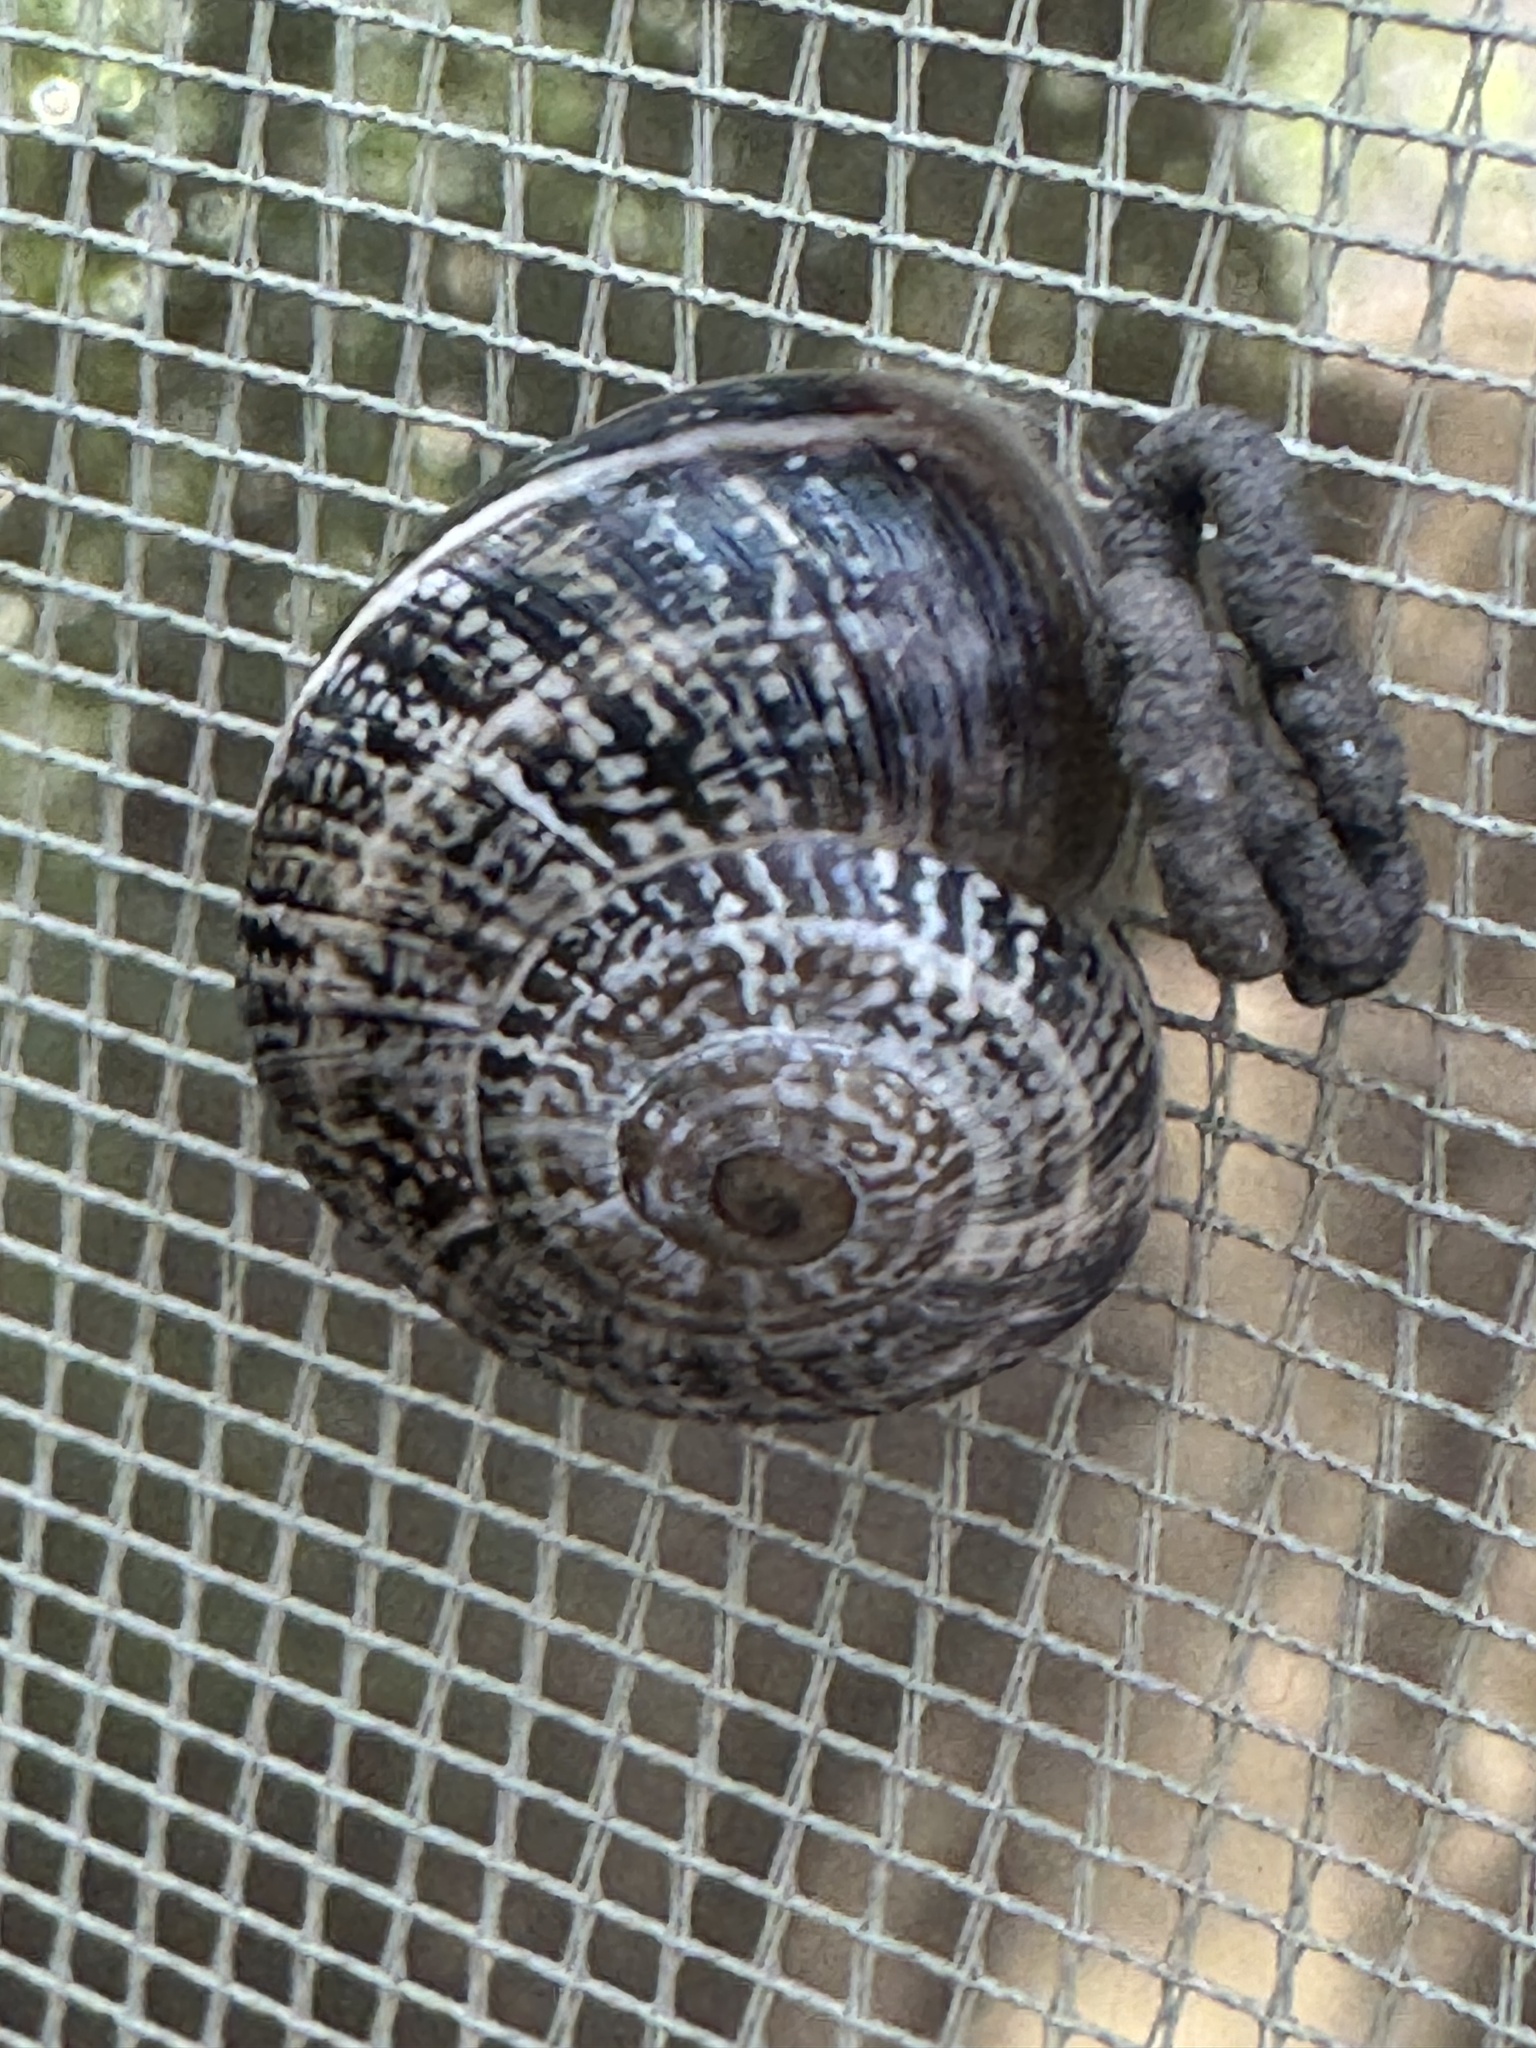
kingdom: Animalia
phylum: Mollusca
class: Gastropoda
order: Stylommatophora
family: Helicidae
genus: Otala
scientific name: Otala lactea
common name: Milk snail
